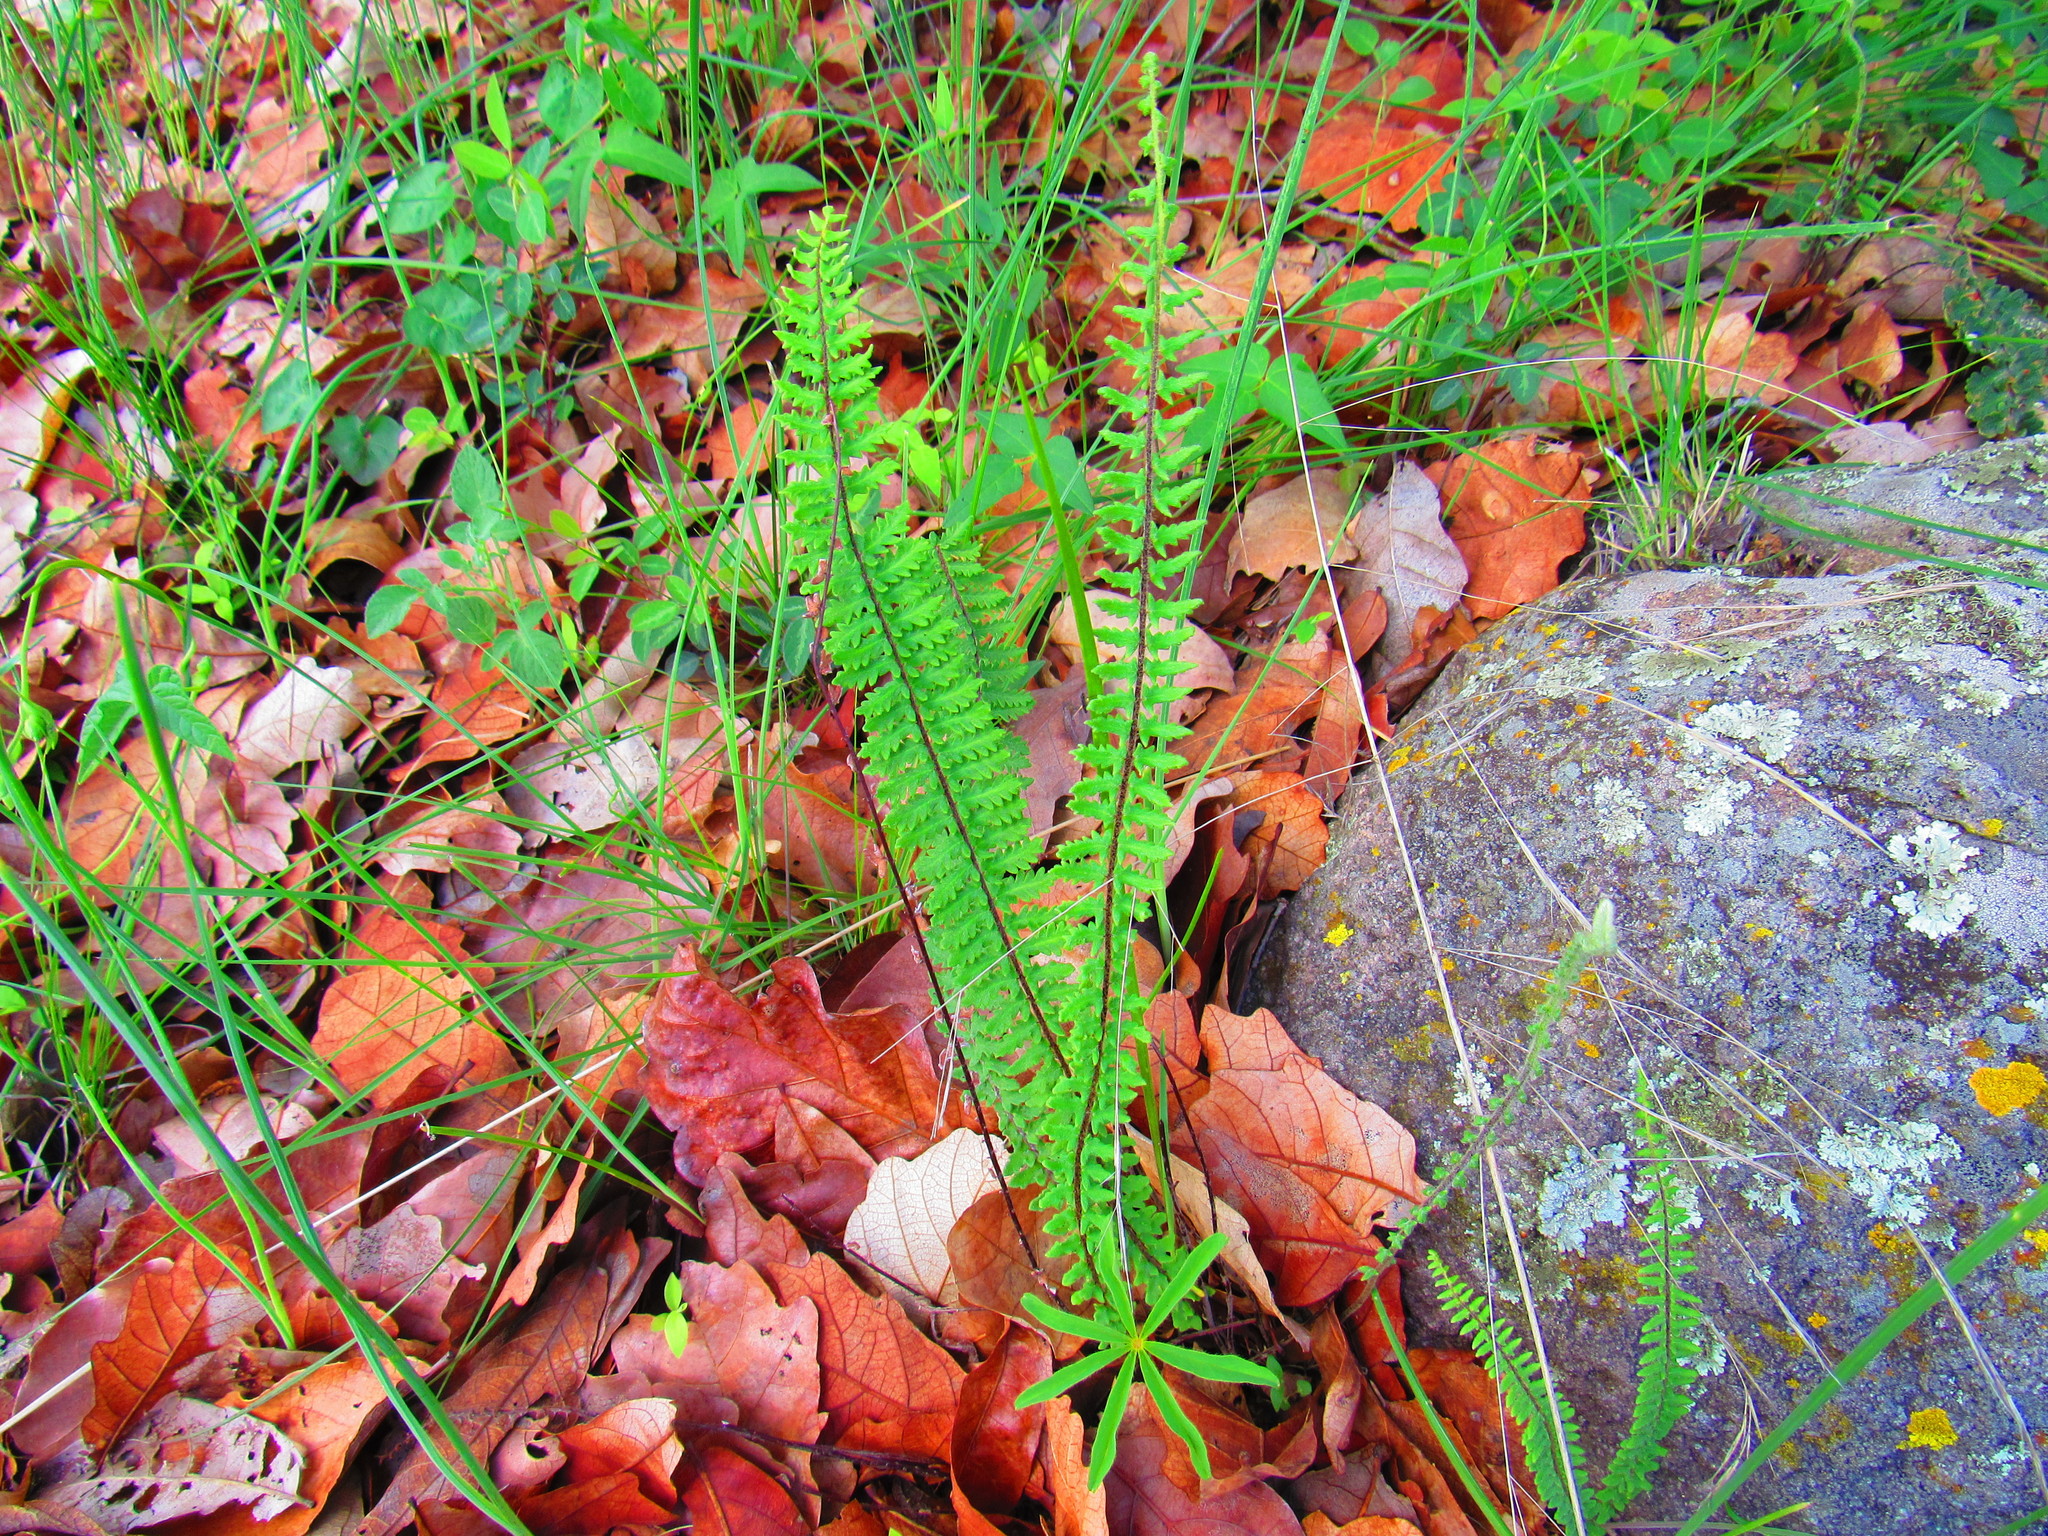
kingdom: Plantae
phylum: Tracheophyta
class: Polypodiopsida
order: Polypodiales
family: Pteridaceae
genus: Myriopteris
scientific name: Myriopteris aurea
